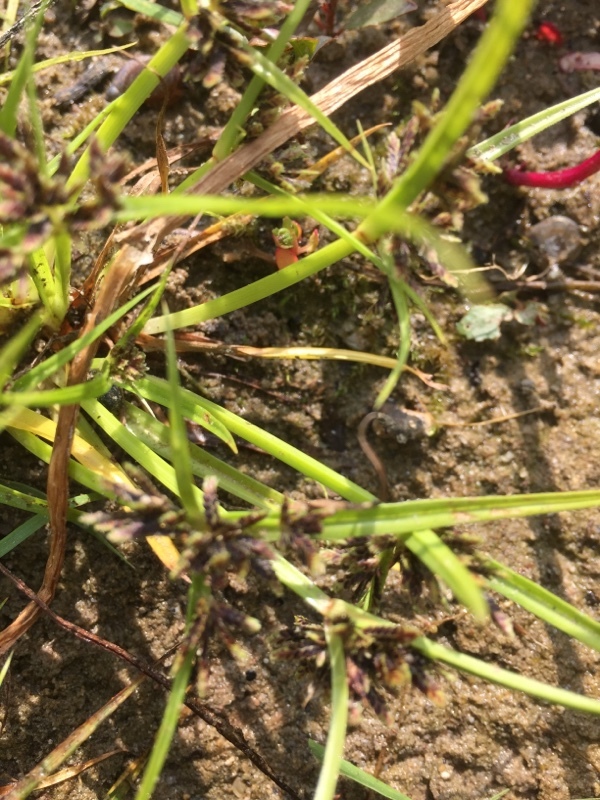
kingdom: Plantae
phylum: Tracheophyta
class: Liliopsida
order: Poales
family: Cyperaceae
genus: Cyperus
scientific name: Cyperus fuscus
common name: Brown galingale
